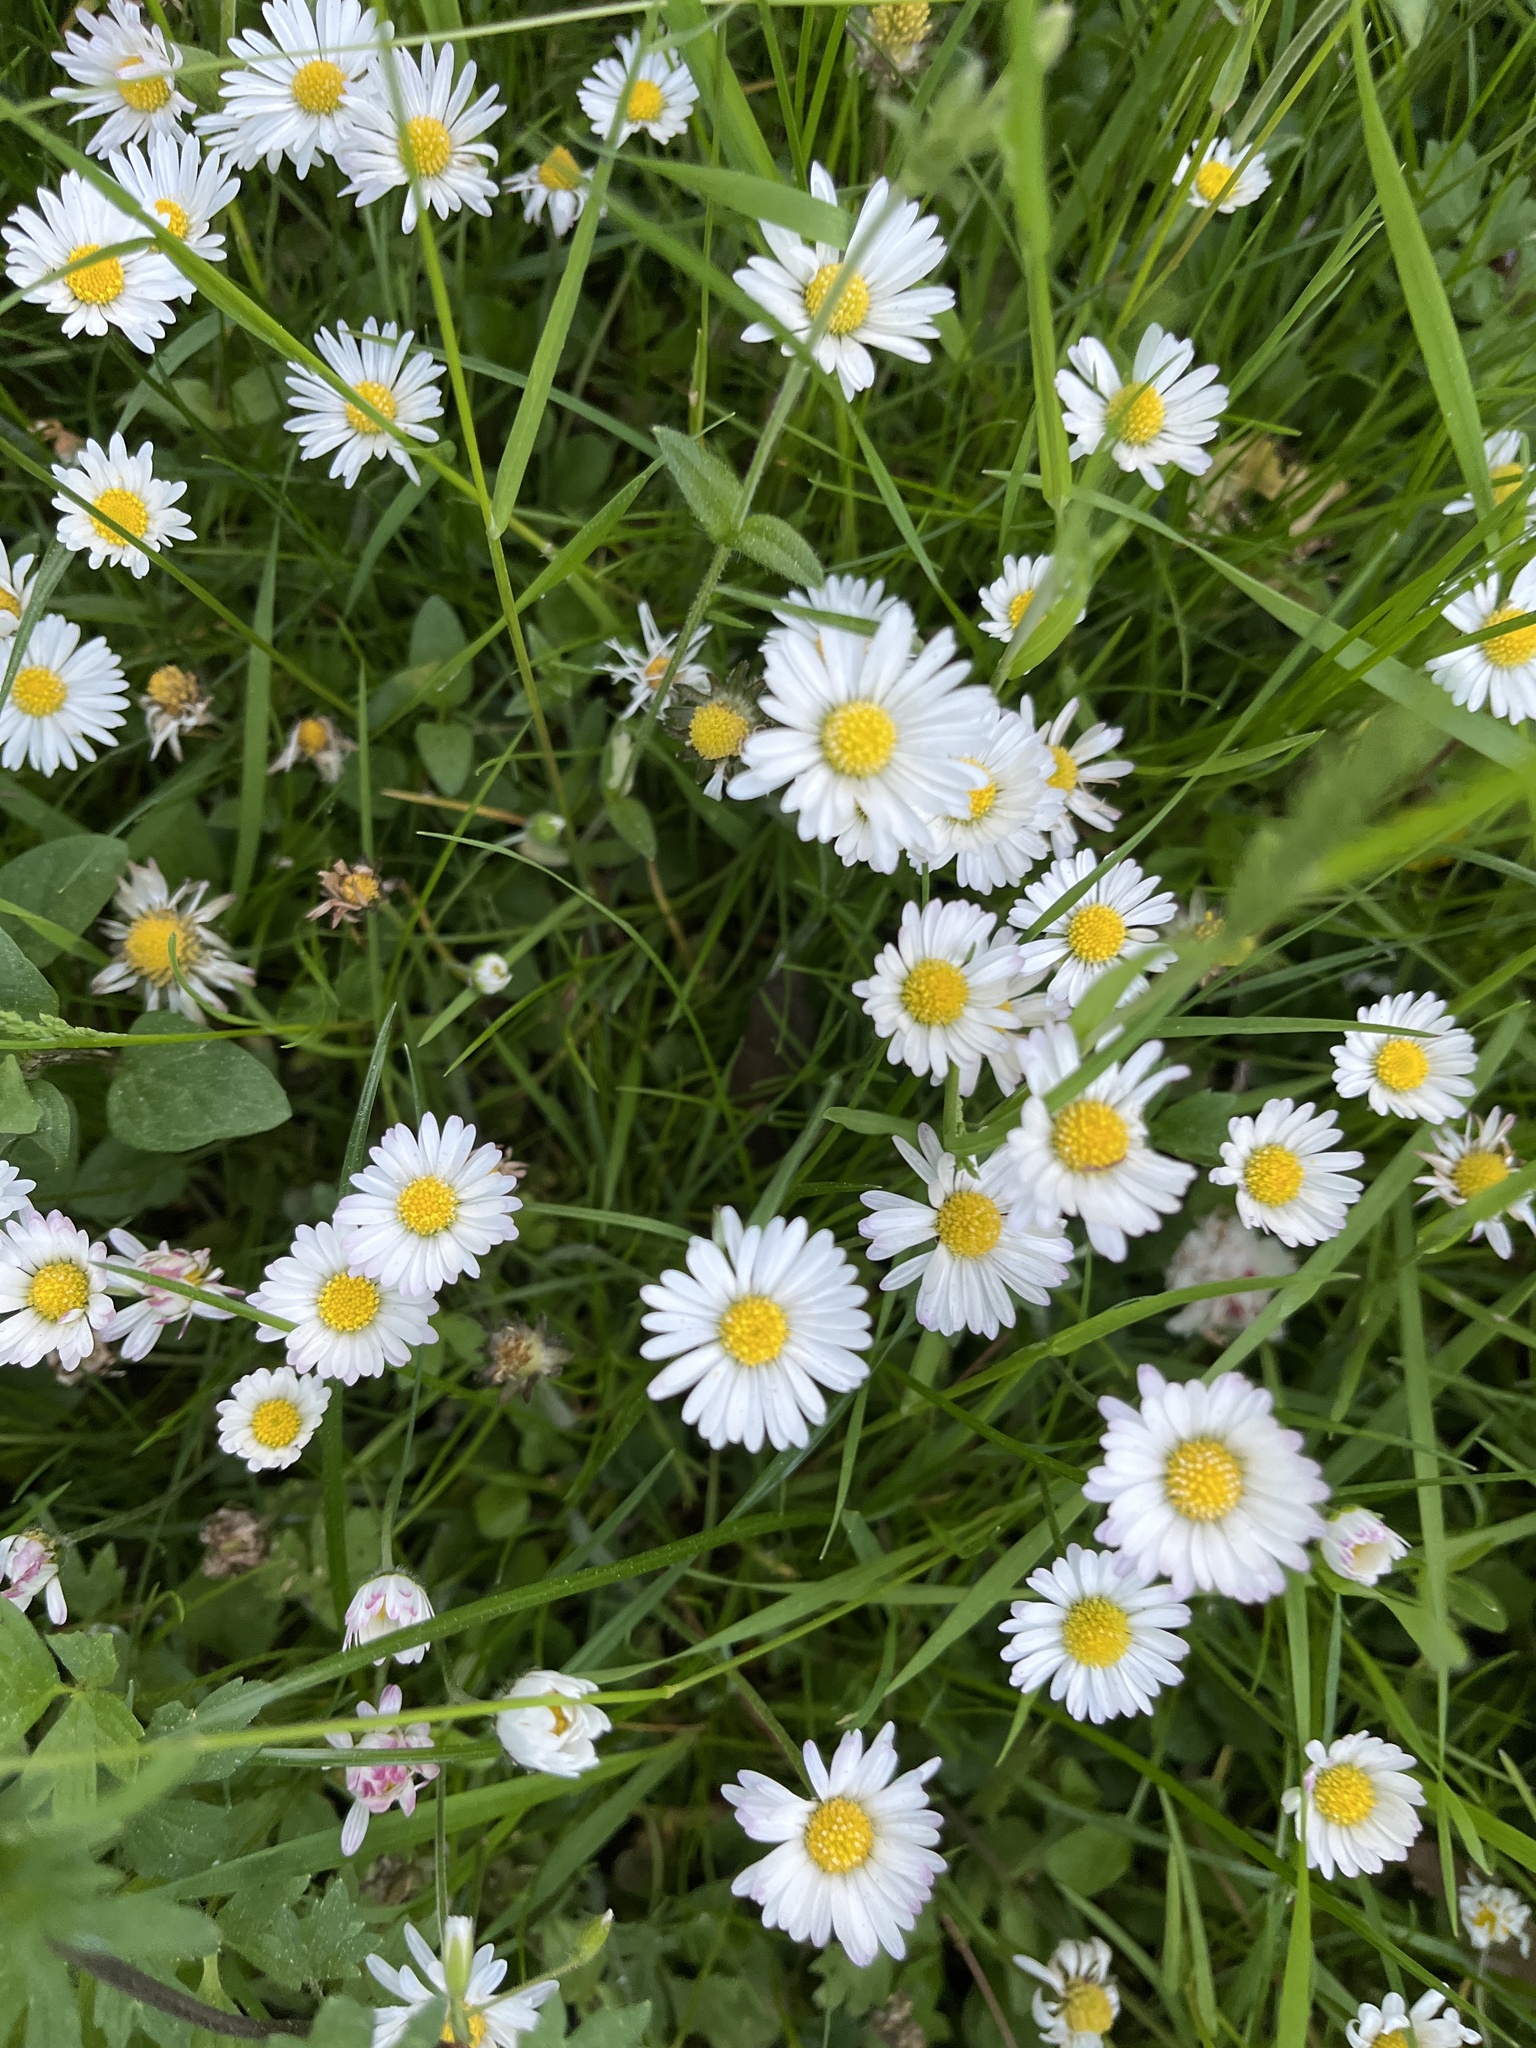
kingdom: Plantae
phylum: Tracheophyta
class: Magnoliopsida
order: Asterales
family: Asteraceae
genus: Bellis
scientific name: Bellis perennis
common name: Lawndaisy
